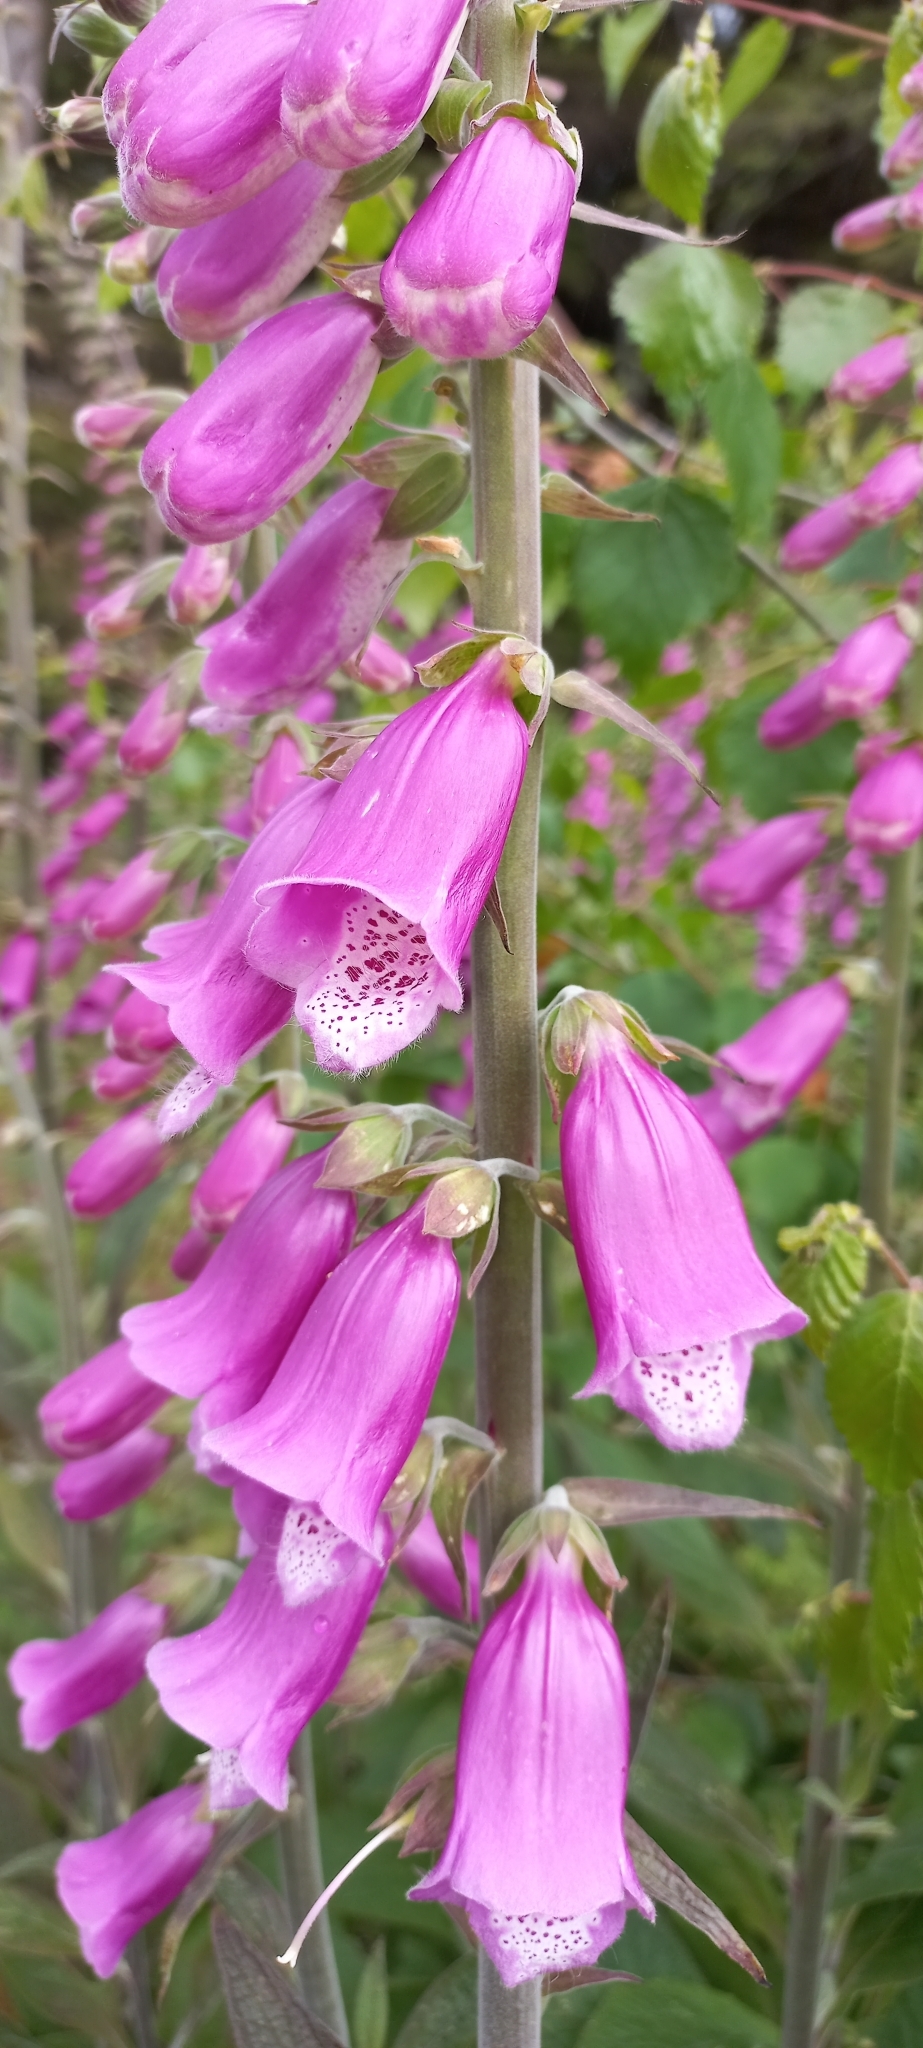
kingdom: Plantae
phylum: Tracheophyta
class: Magnoliopsida
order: Lamiales
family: Plantaginaceae
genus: Digitalis
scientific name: Digitalis purpurea
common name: Foxglove
